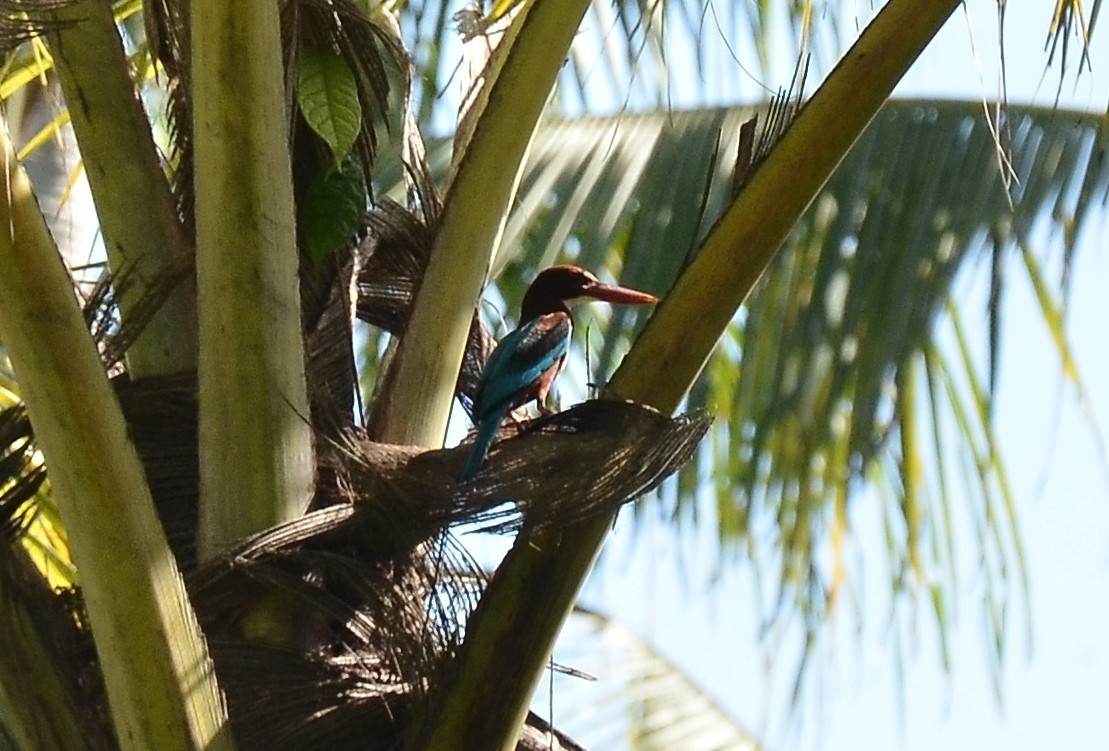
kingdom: Animalia
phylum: Chordata
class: Aves
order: Coraciiformes
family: Alcedinidae
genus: Halcyon
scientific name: Halcyon smyrnensis
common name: White-throated kingfisher
